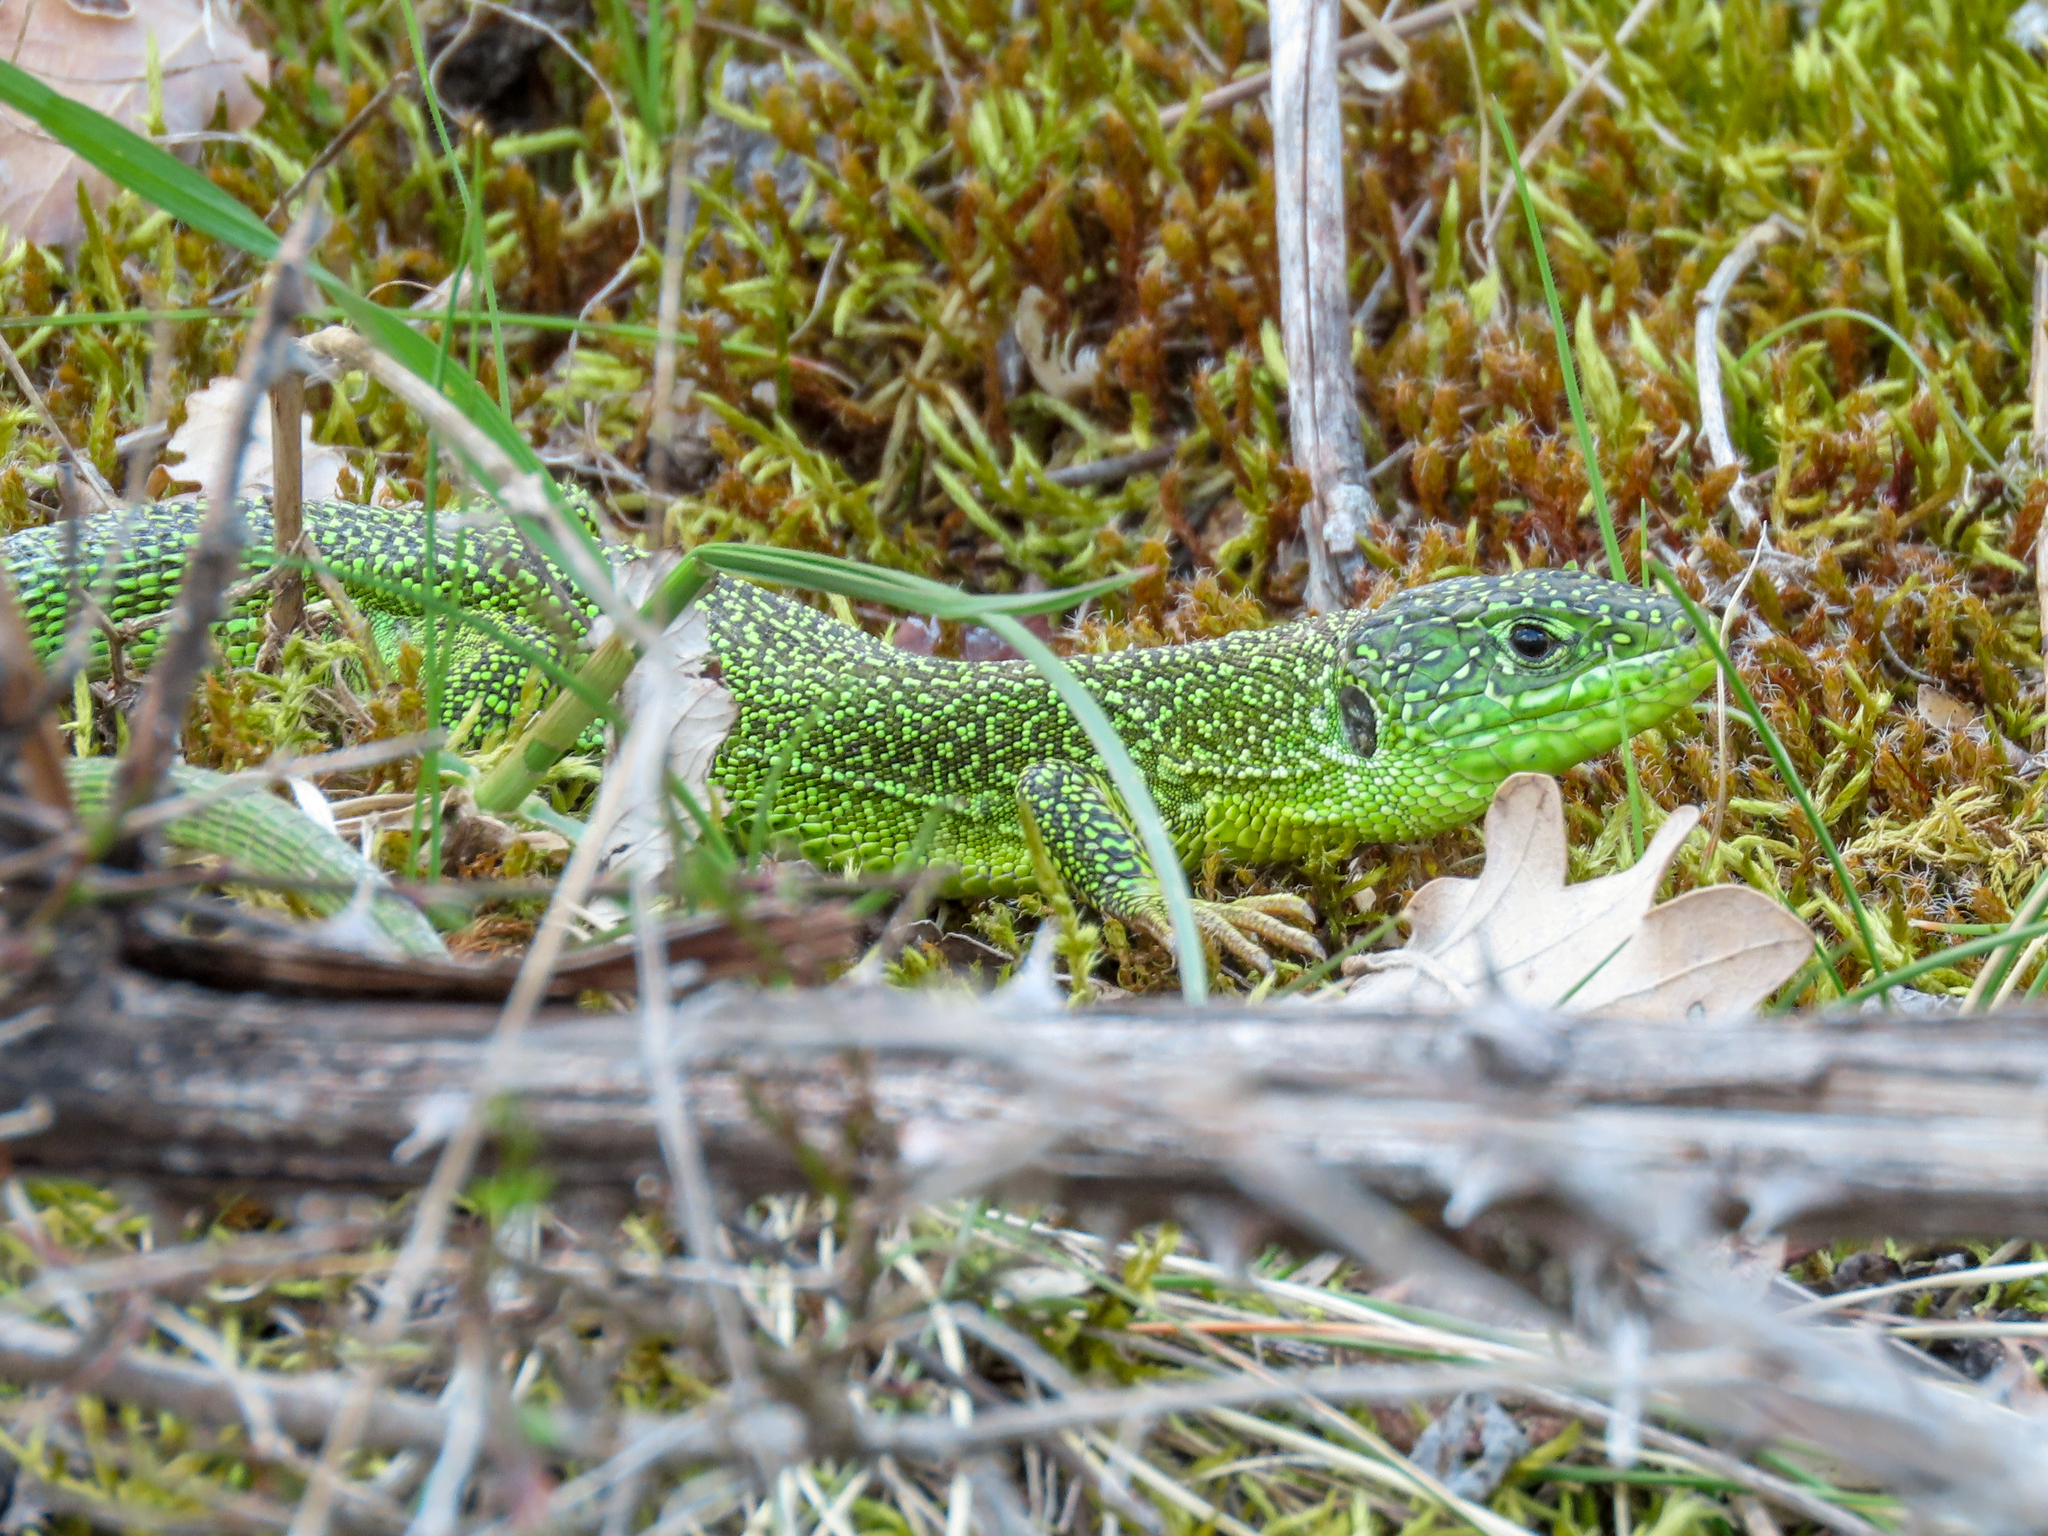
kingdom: Animalia
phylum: Chordata
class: Squamata
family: Lacertidae
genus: Lacerta
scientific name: Lacerta bilineata
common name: Western green lizard
